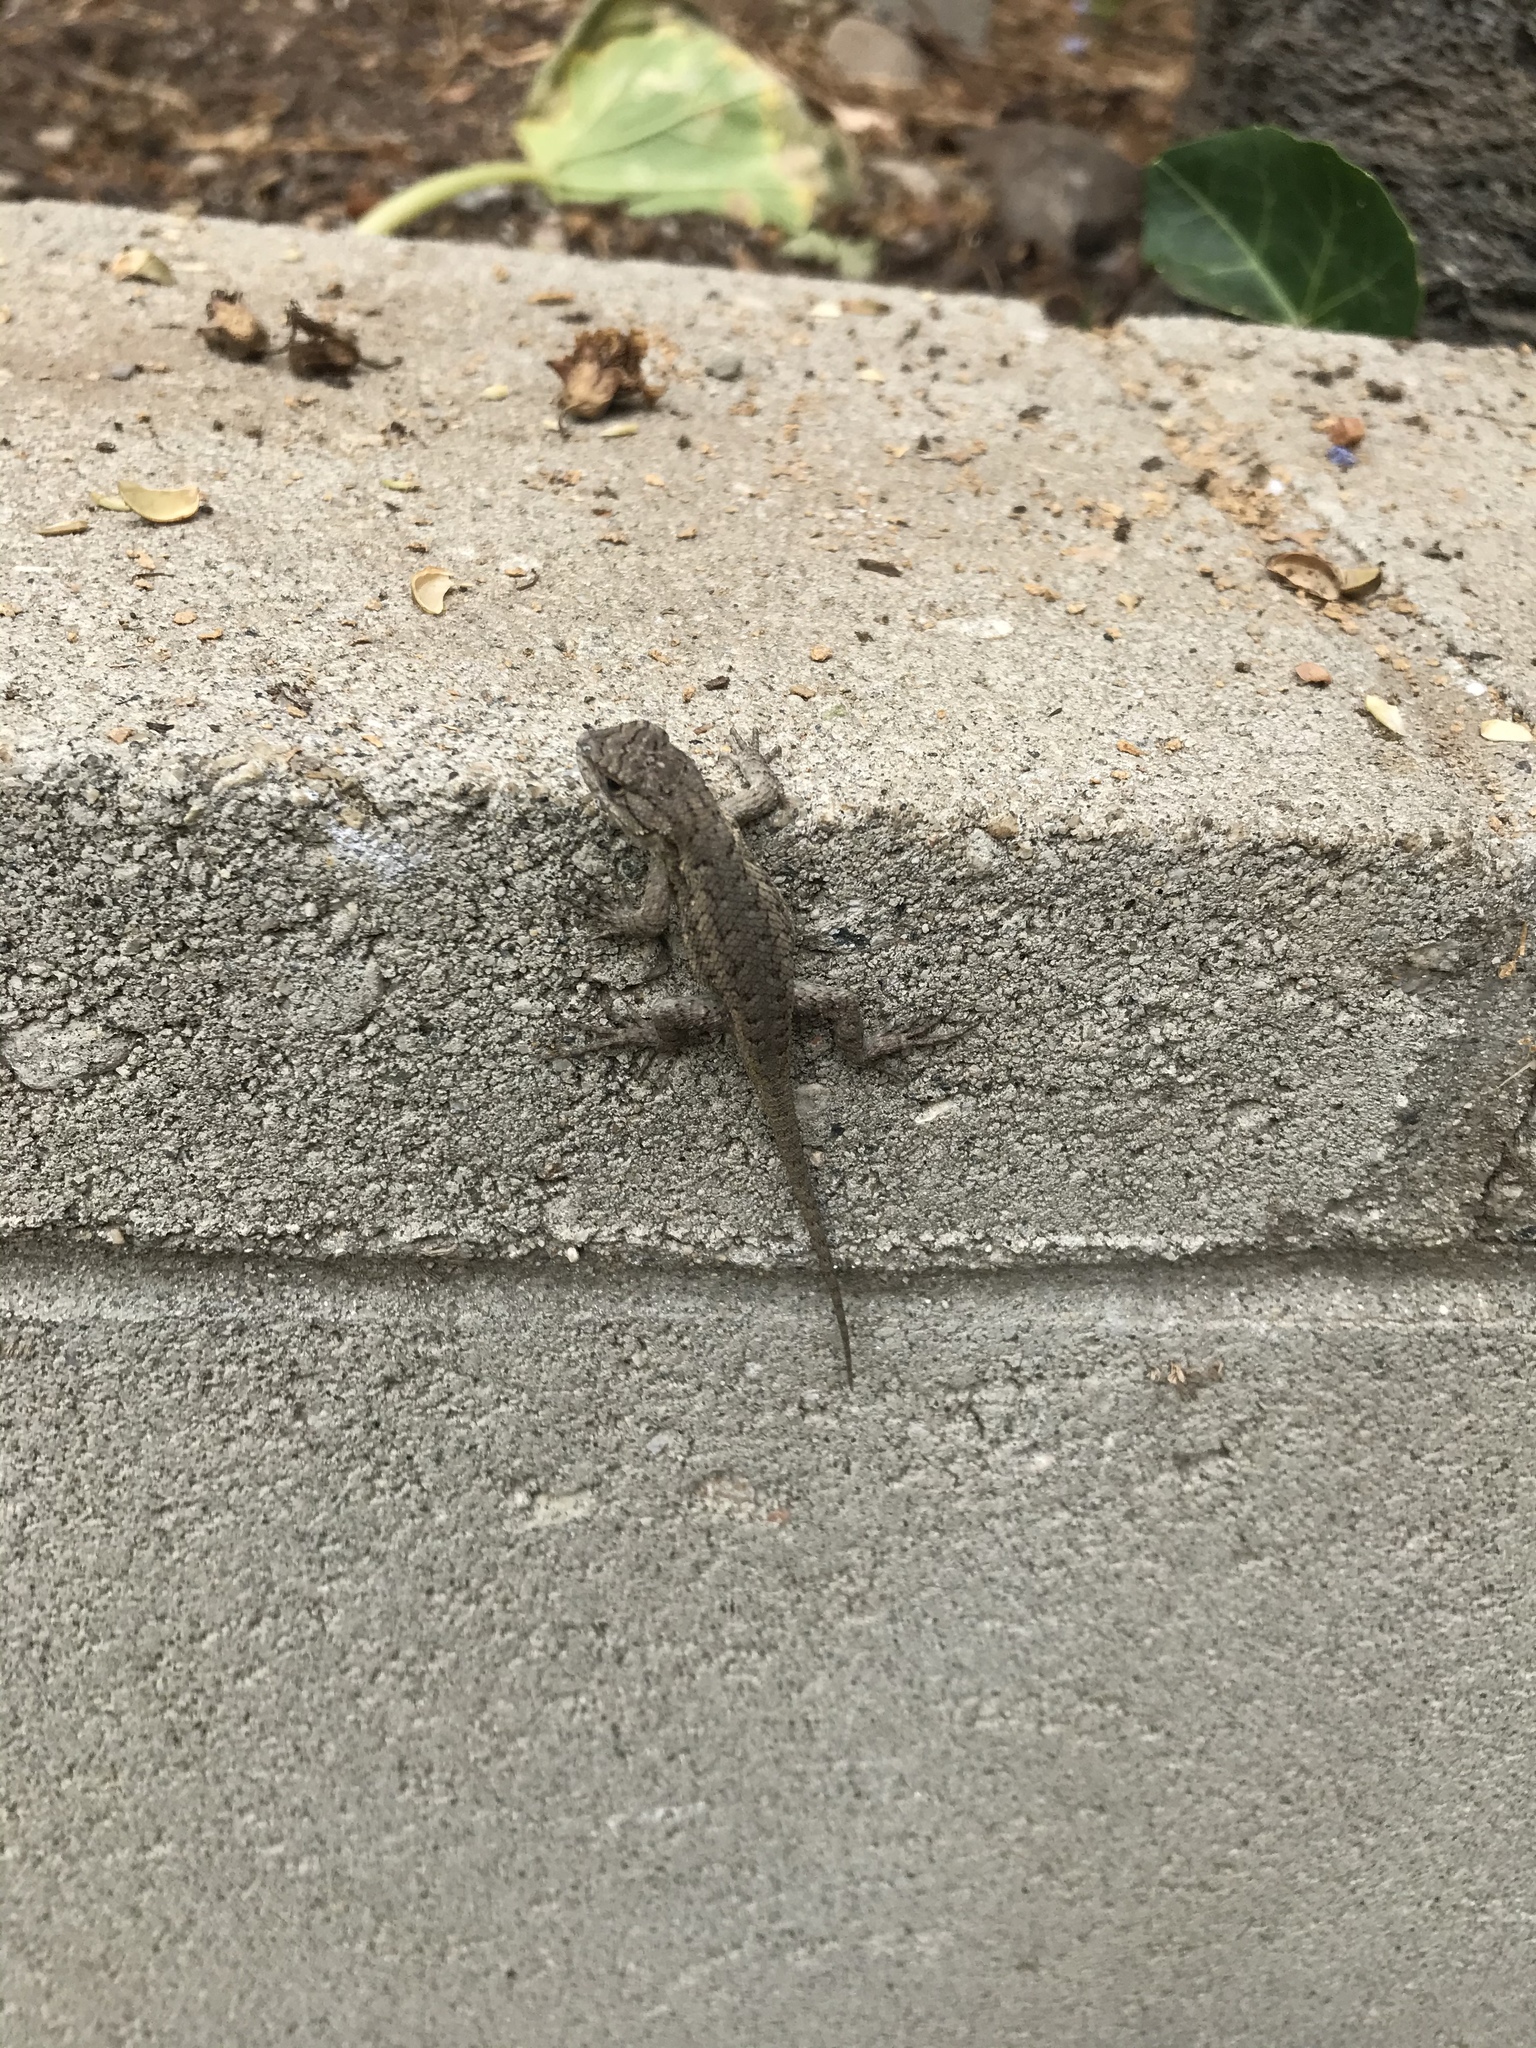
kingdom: Animalia
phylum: Chordata
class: Squamata
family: Phrynosomatidae
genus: Sceloporus
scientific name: Sceloporus occidentalis
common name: Western fence lizard
